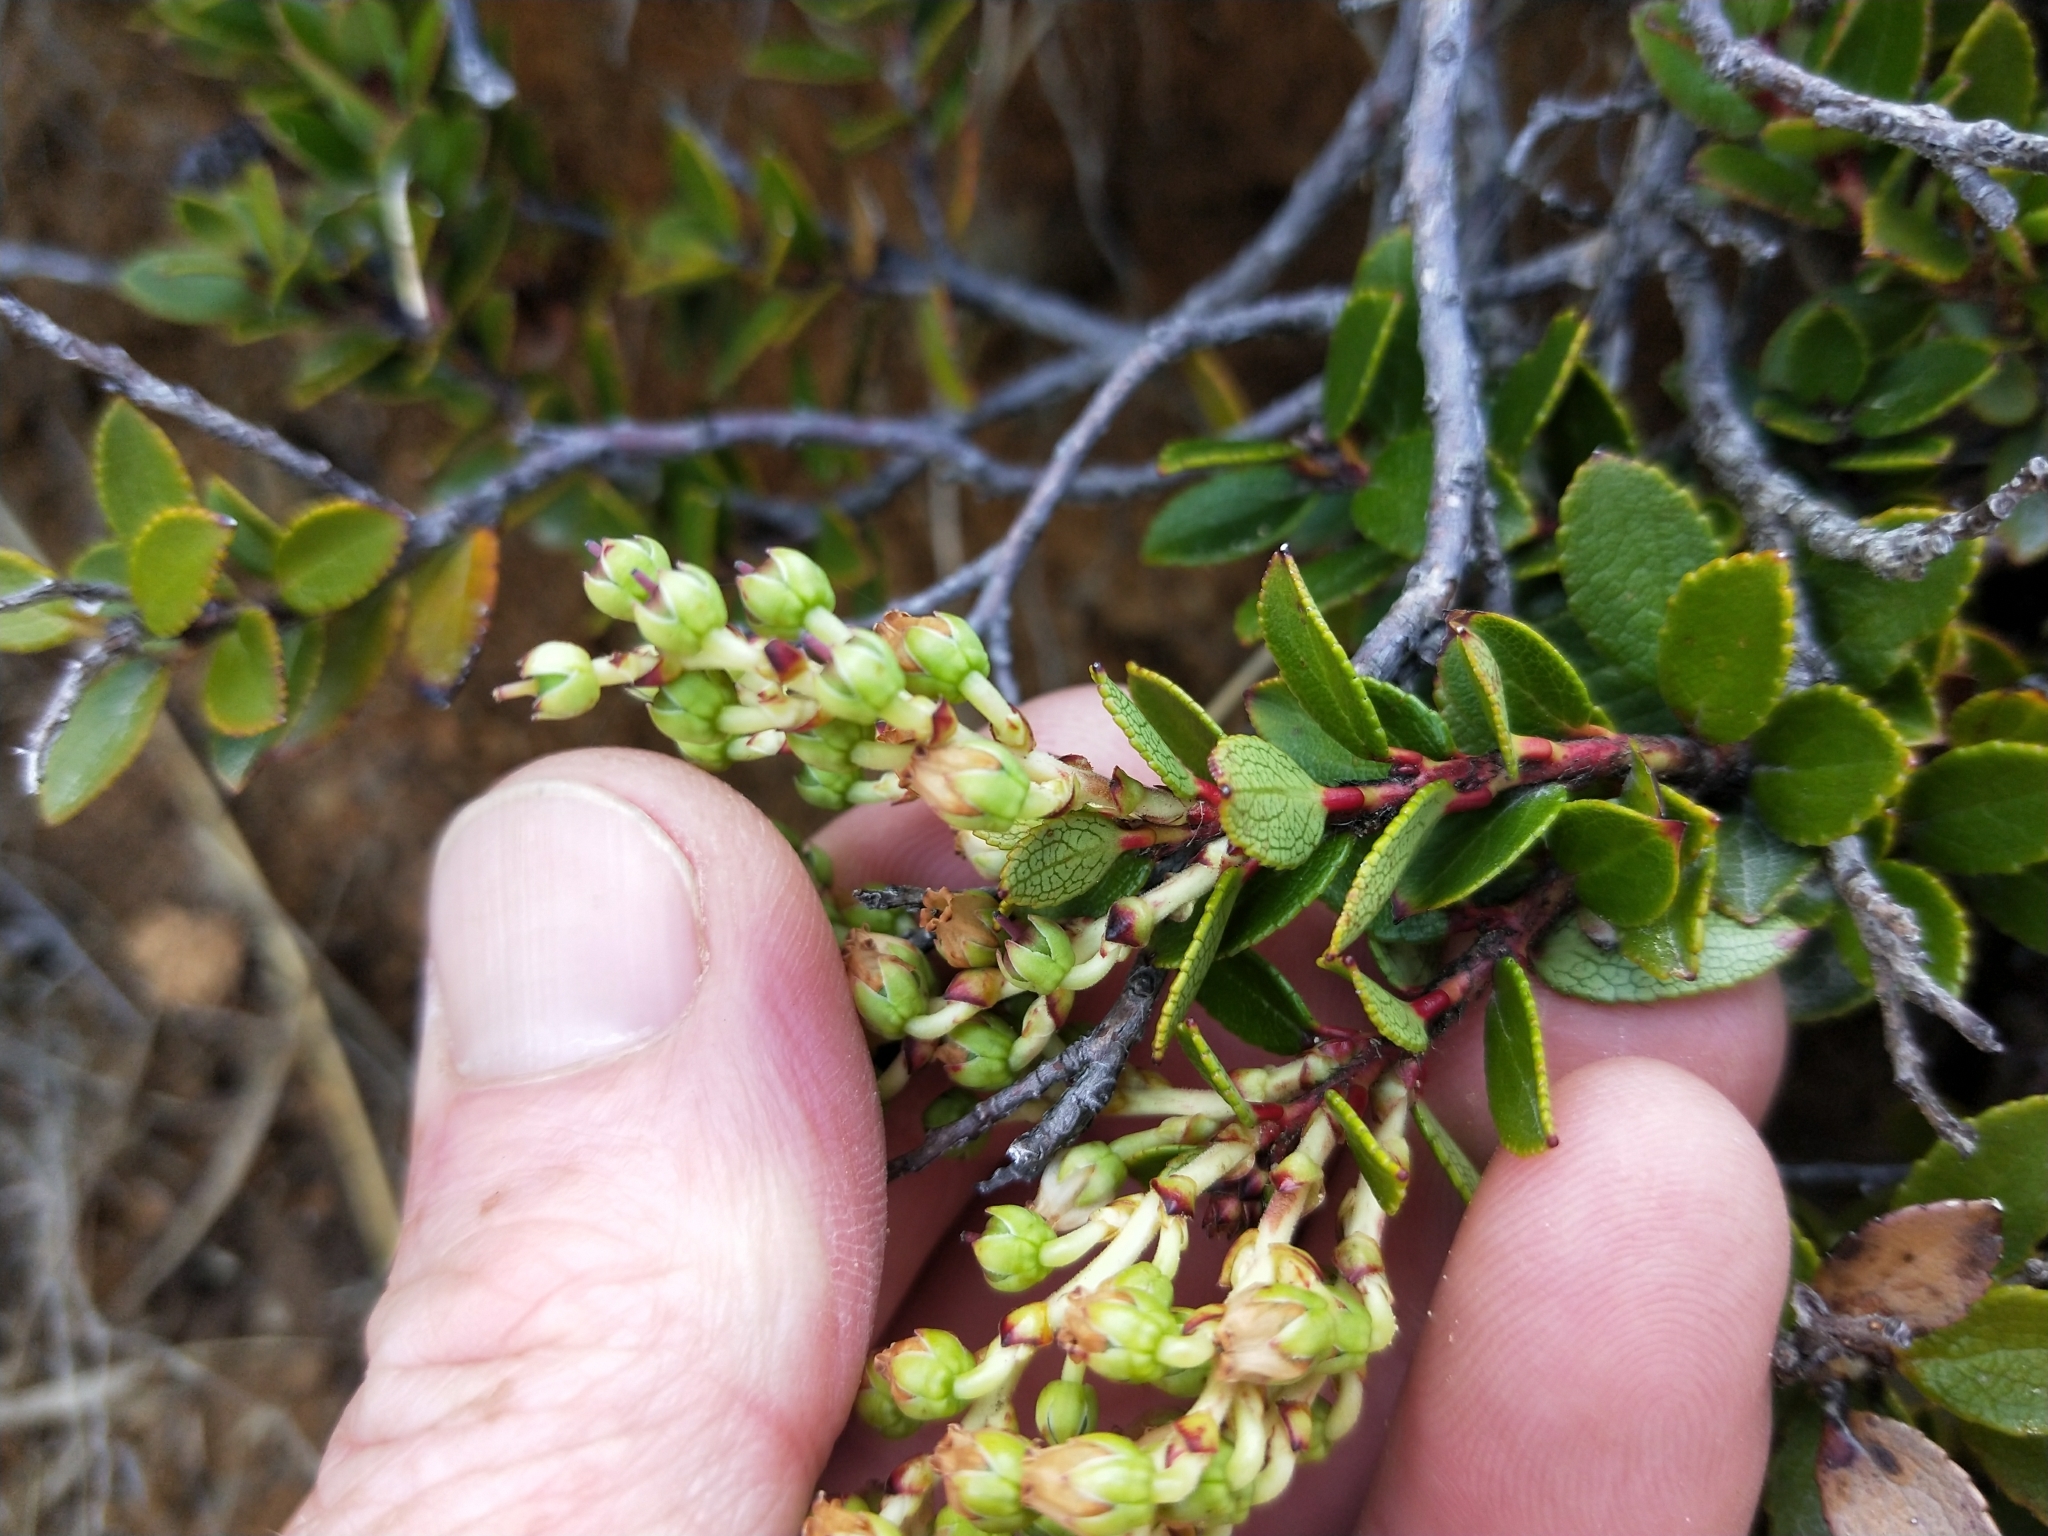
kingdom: Plantae
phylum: Tracheophyta
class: Magnoliopsida
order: Ericales
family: Ericaceae
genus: Gaultheria
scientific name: Gaultheria crassa
